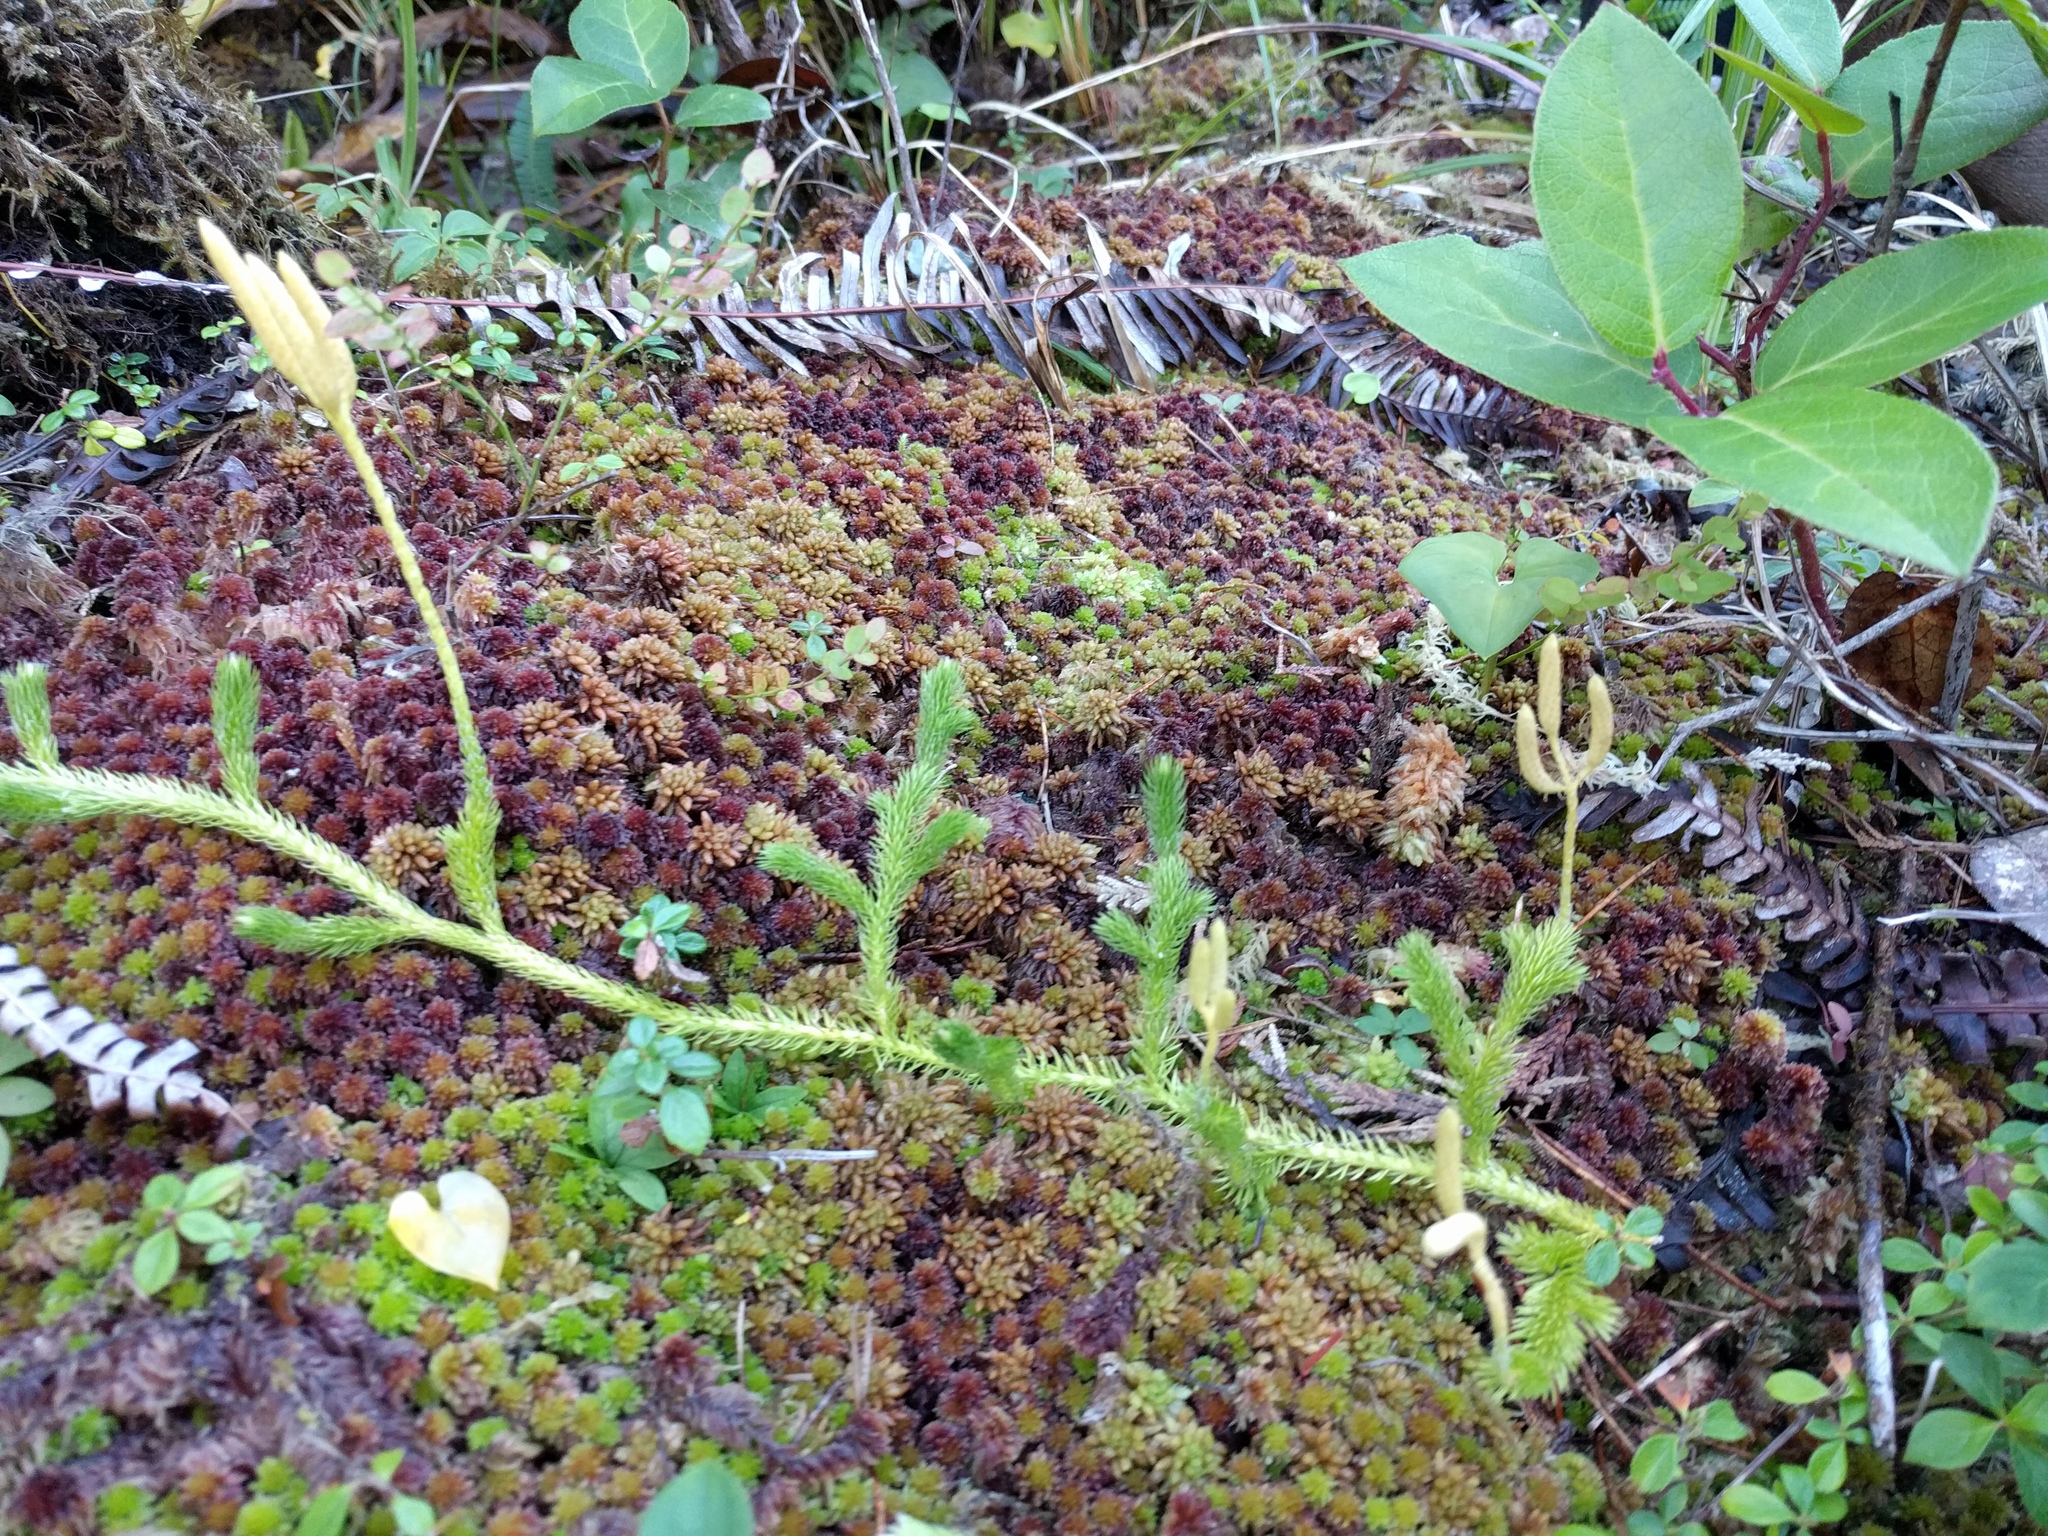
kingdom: Plantae
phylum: Tracheophyta
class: Lycopodiopsida
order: Lycopodiales
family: Lycopodiaceae
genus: Lycopodium
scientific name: Lycopodium clavatum
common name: Stag's-horn clubmoss
